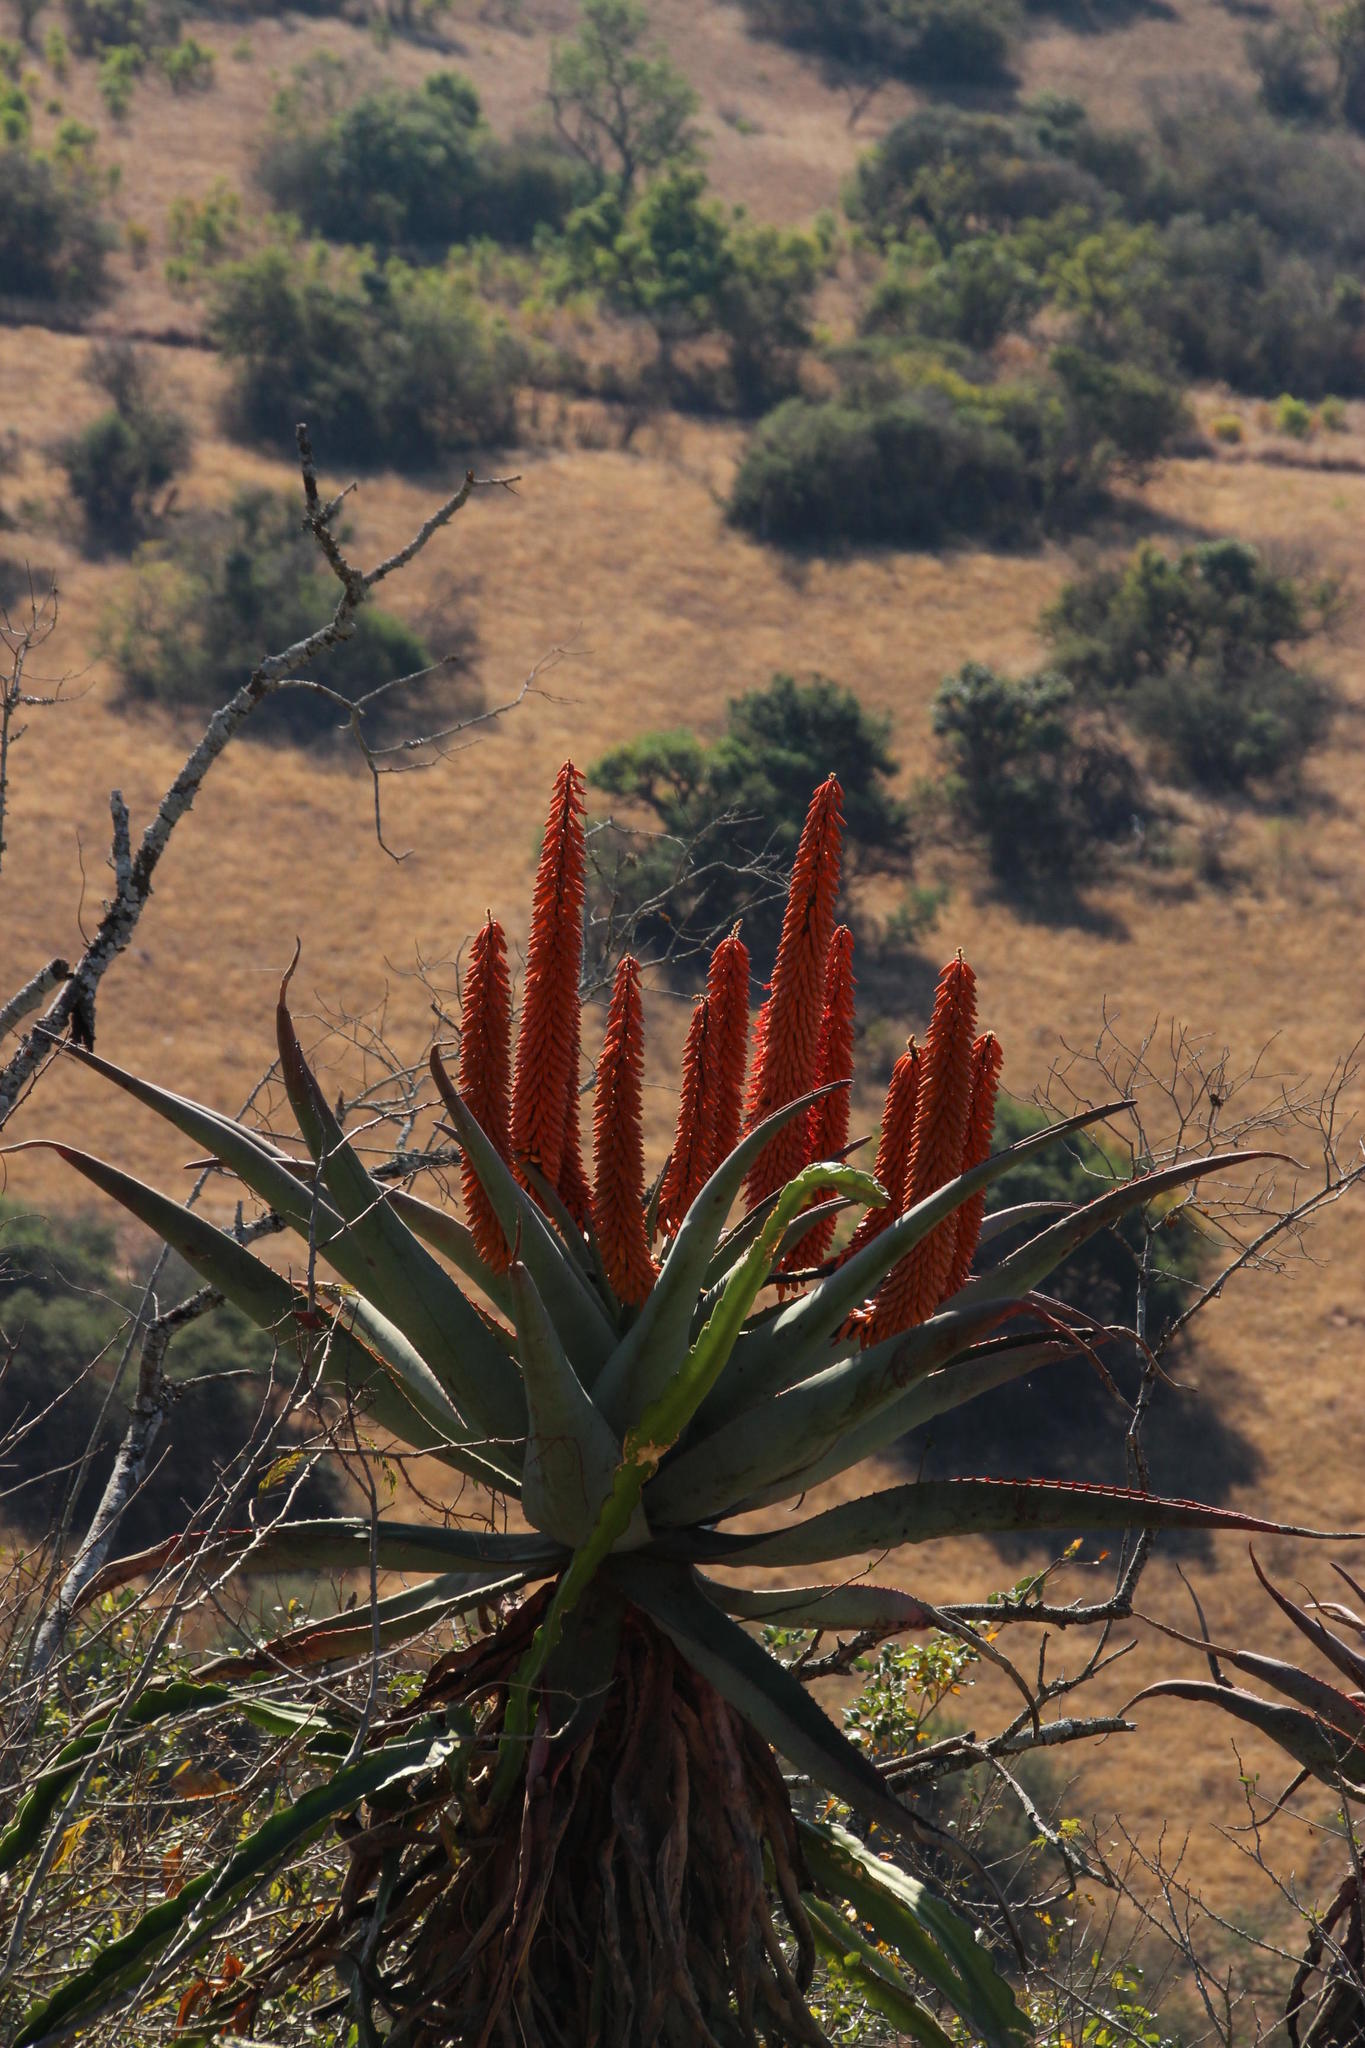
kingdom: Plantae
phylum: Tracheophyta
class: Liliopsida
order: Asparagales
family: Asphodelaceae
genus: Aloe
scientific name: Aloe ferox
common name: Bitter aloe
